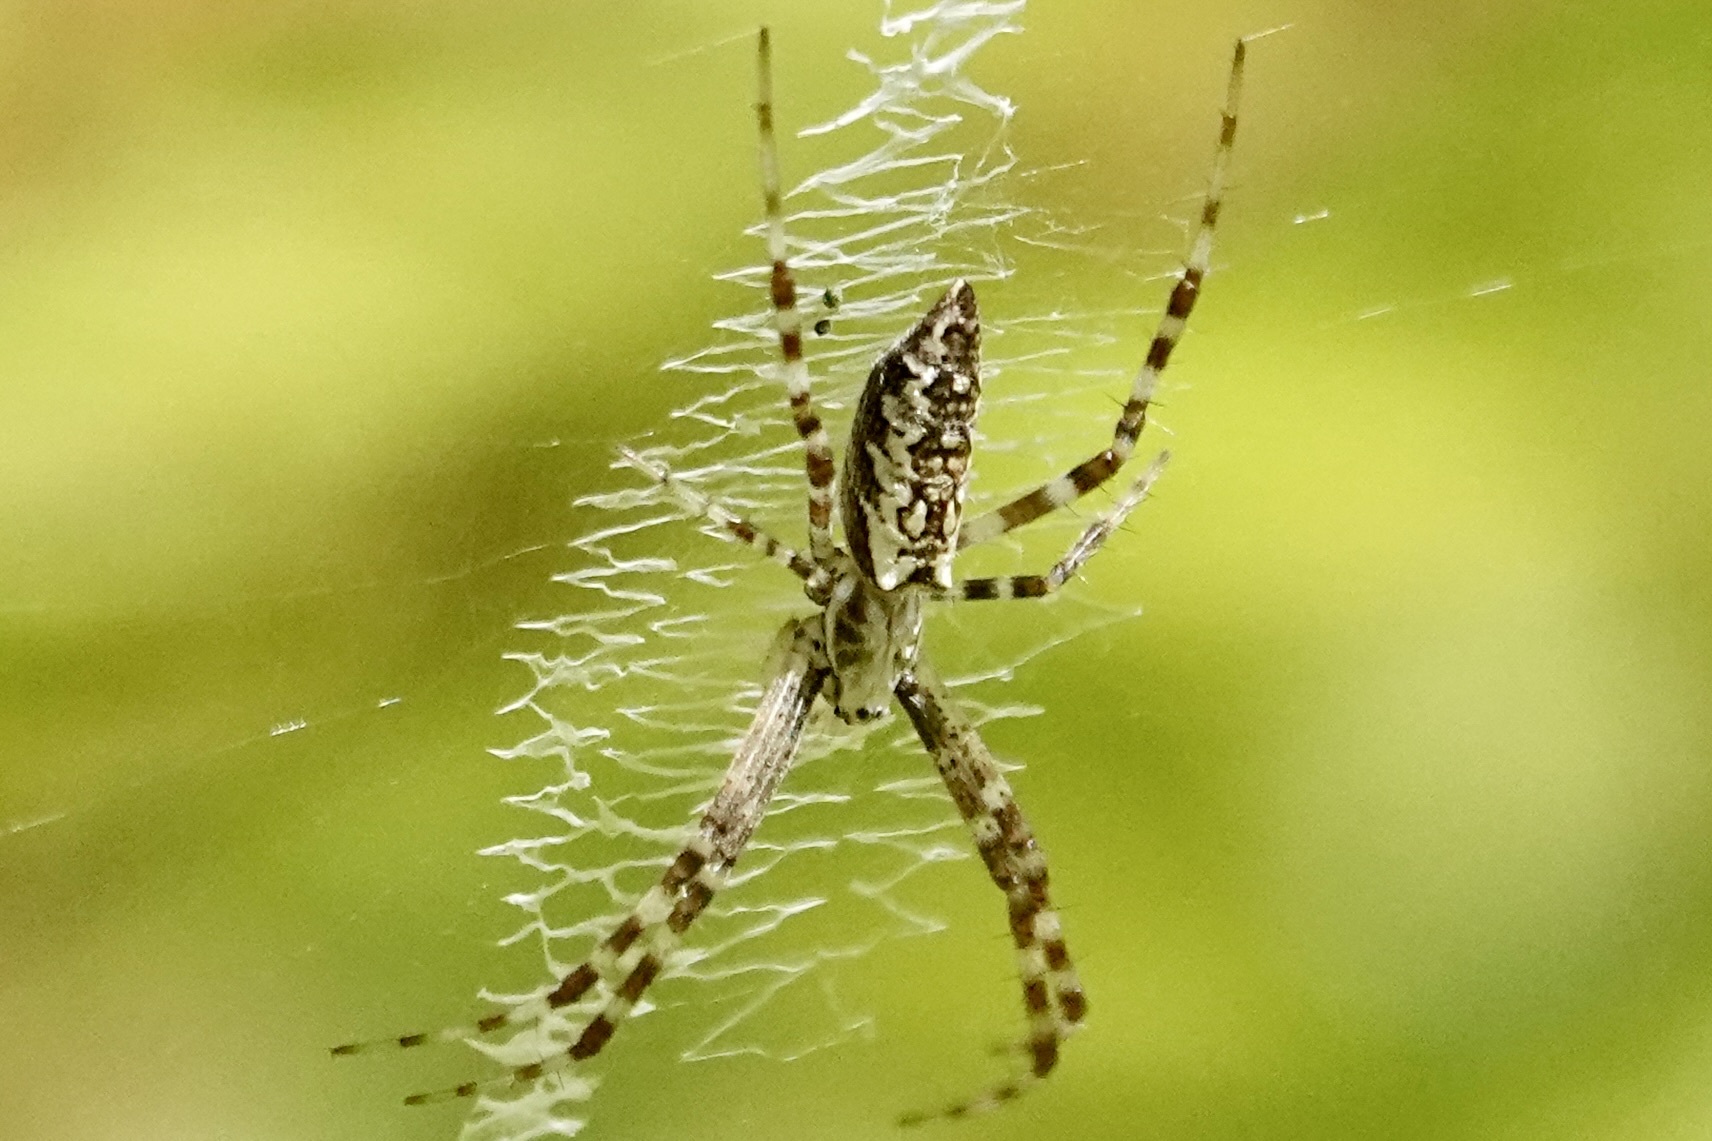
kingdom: Animalia
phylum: Arthropoda
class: Arachnida
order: Araneae
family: Araneidae
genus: Argiope
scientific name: Argiope aurantia
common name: Orb weavers
